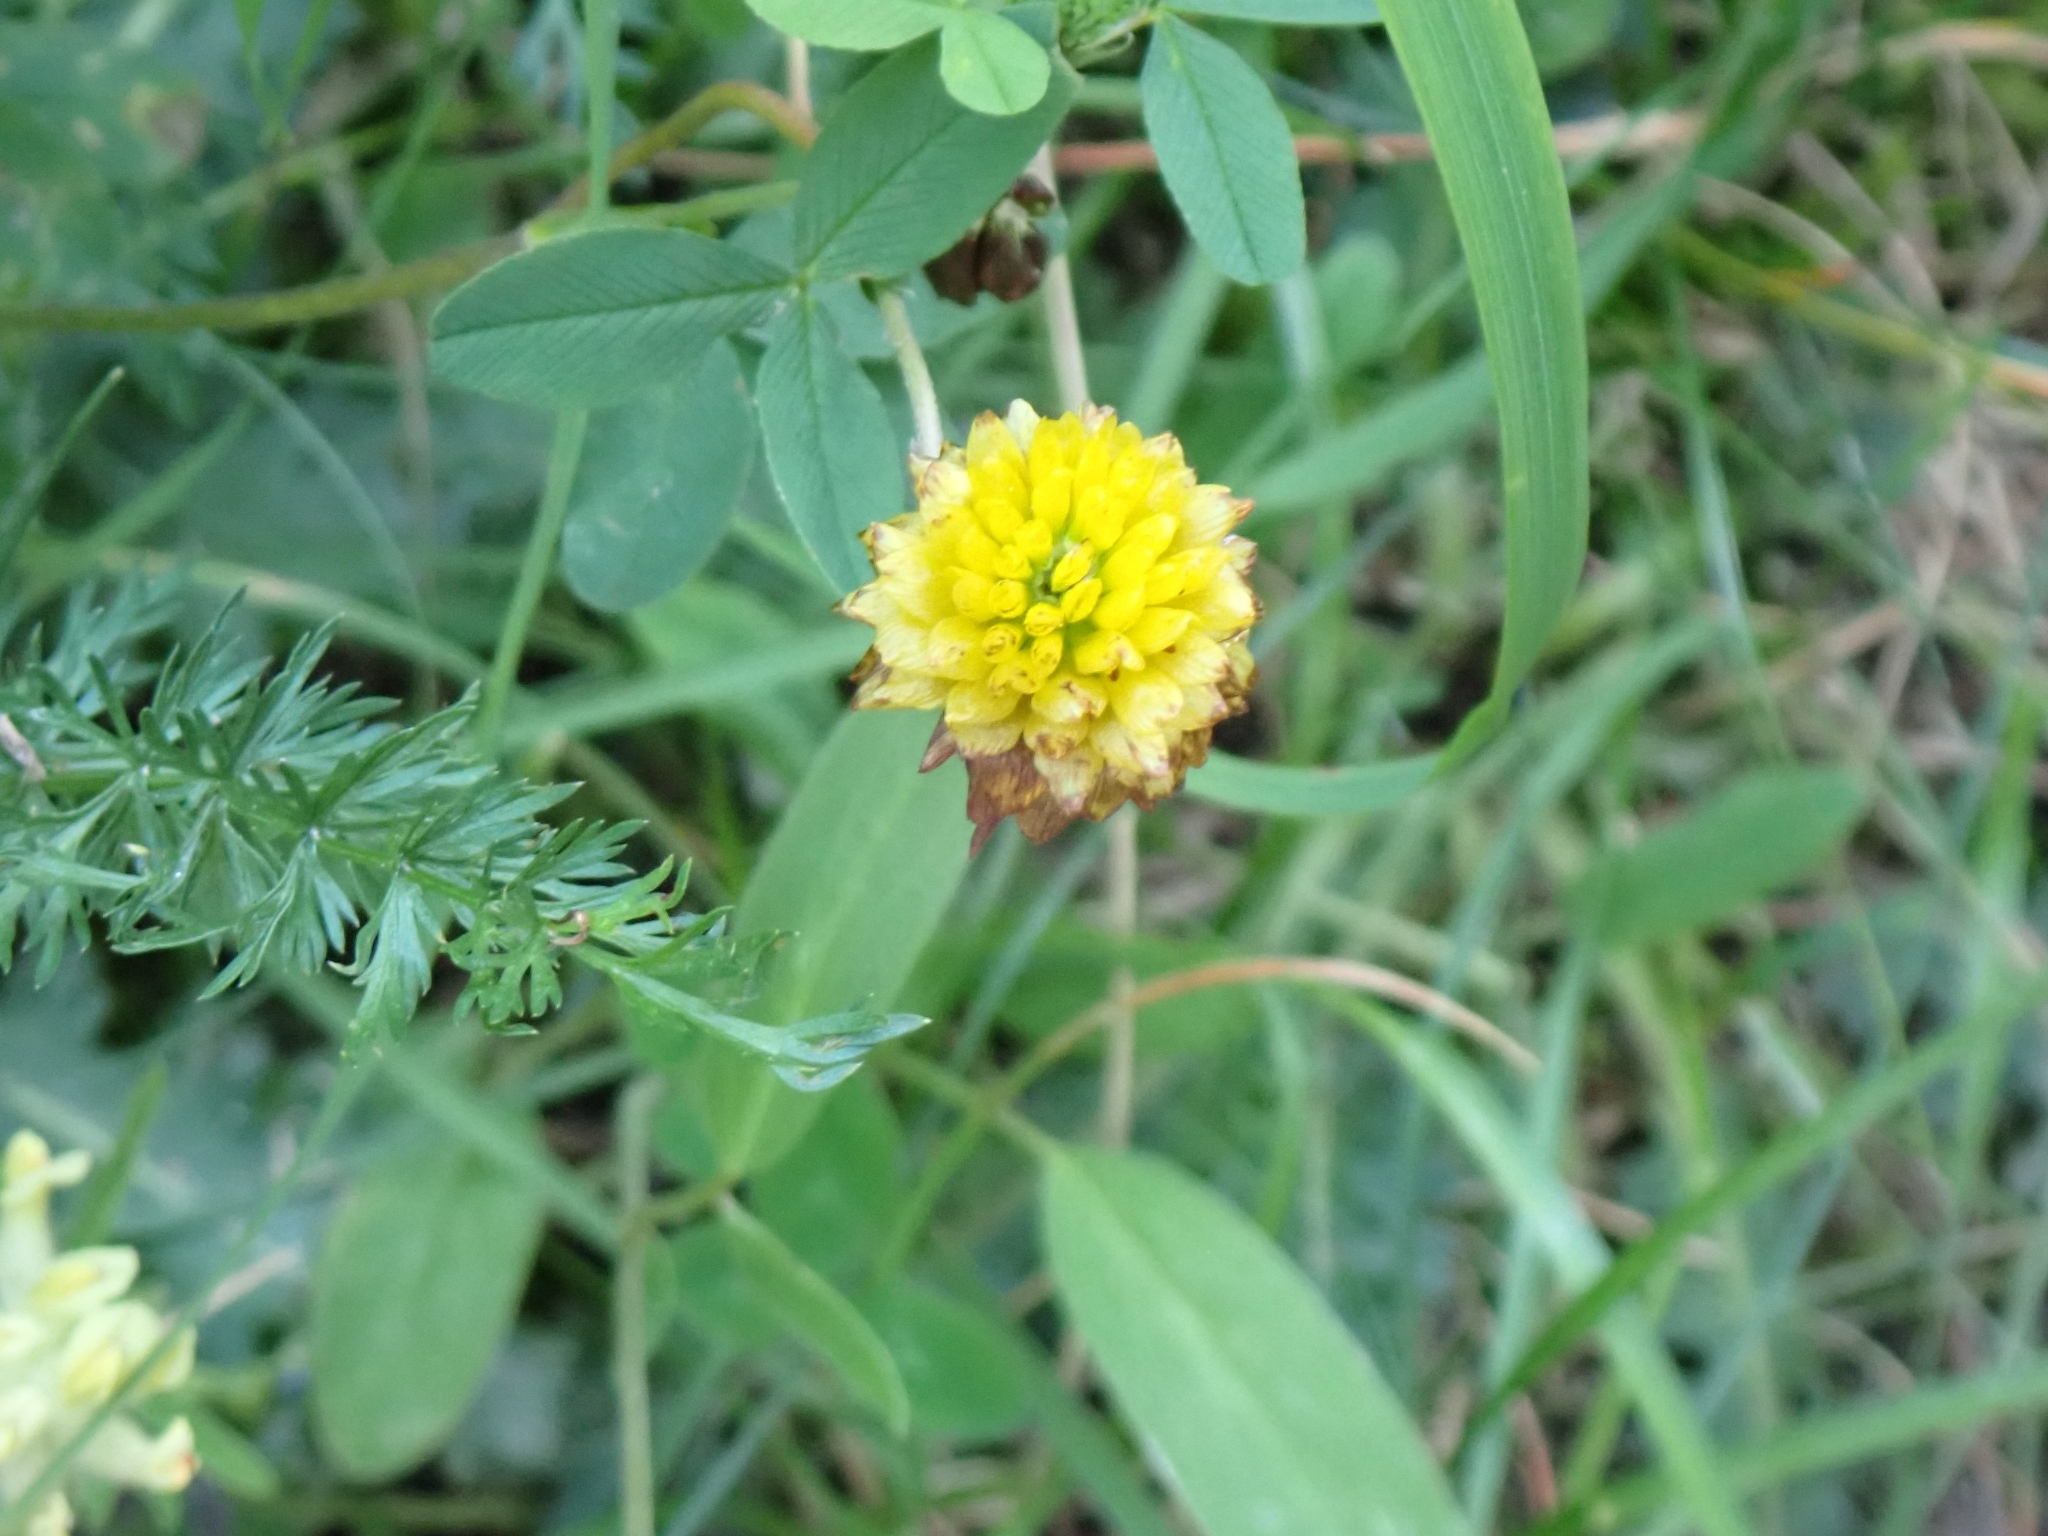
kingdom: Plantae
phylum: Tracheophyta
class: Magnoliopsida
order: Fabales
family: Fabaceae
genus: Trifolium
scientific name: Trifolium badium
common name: Brown clover
